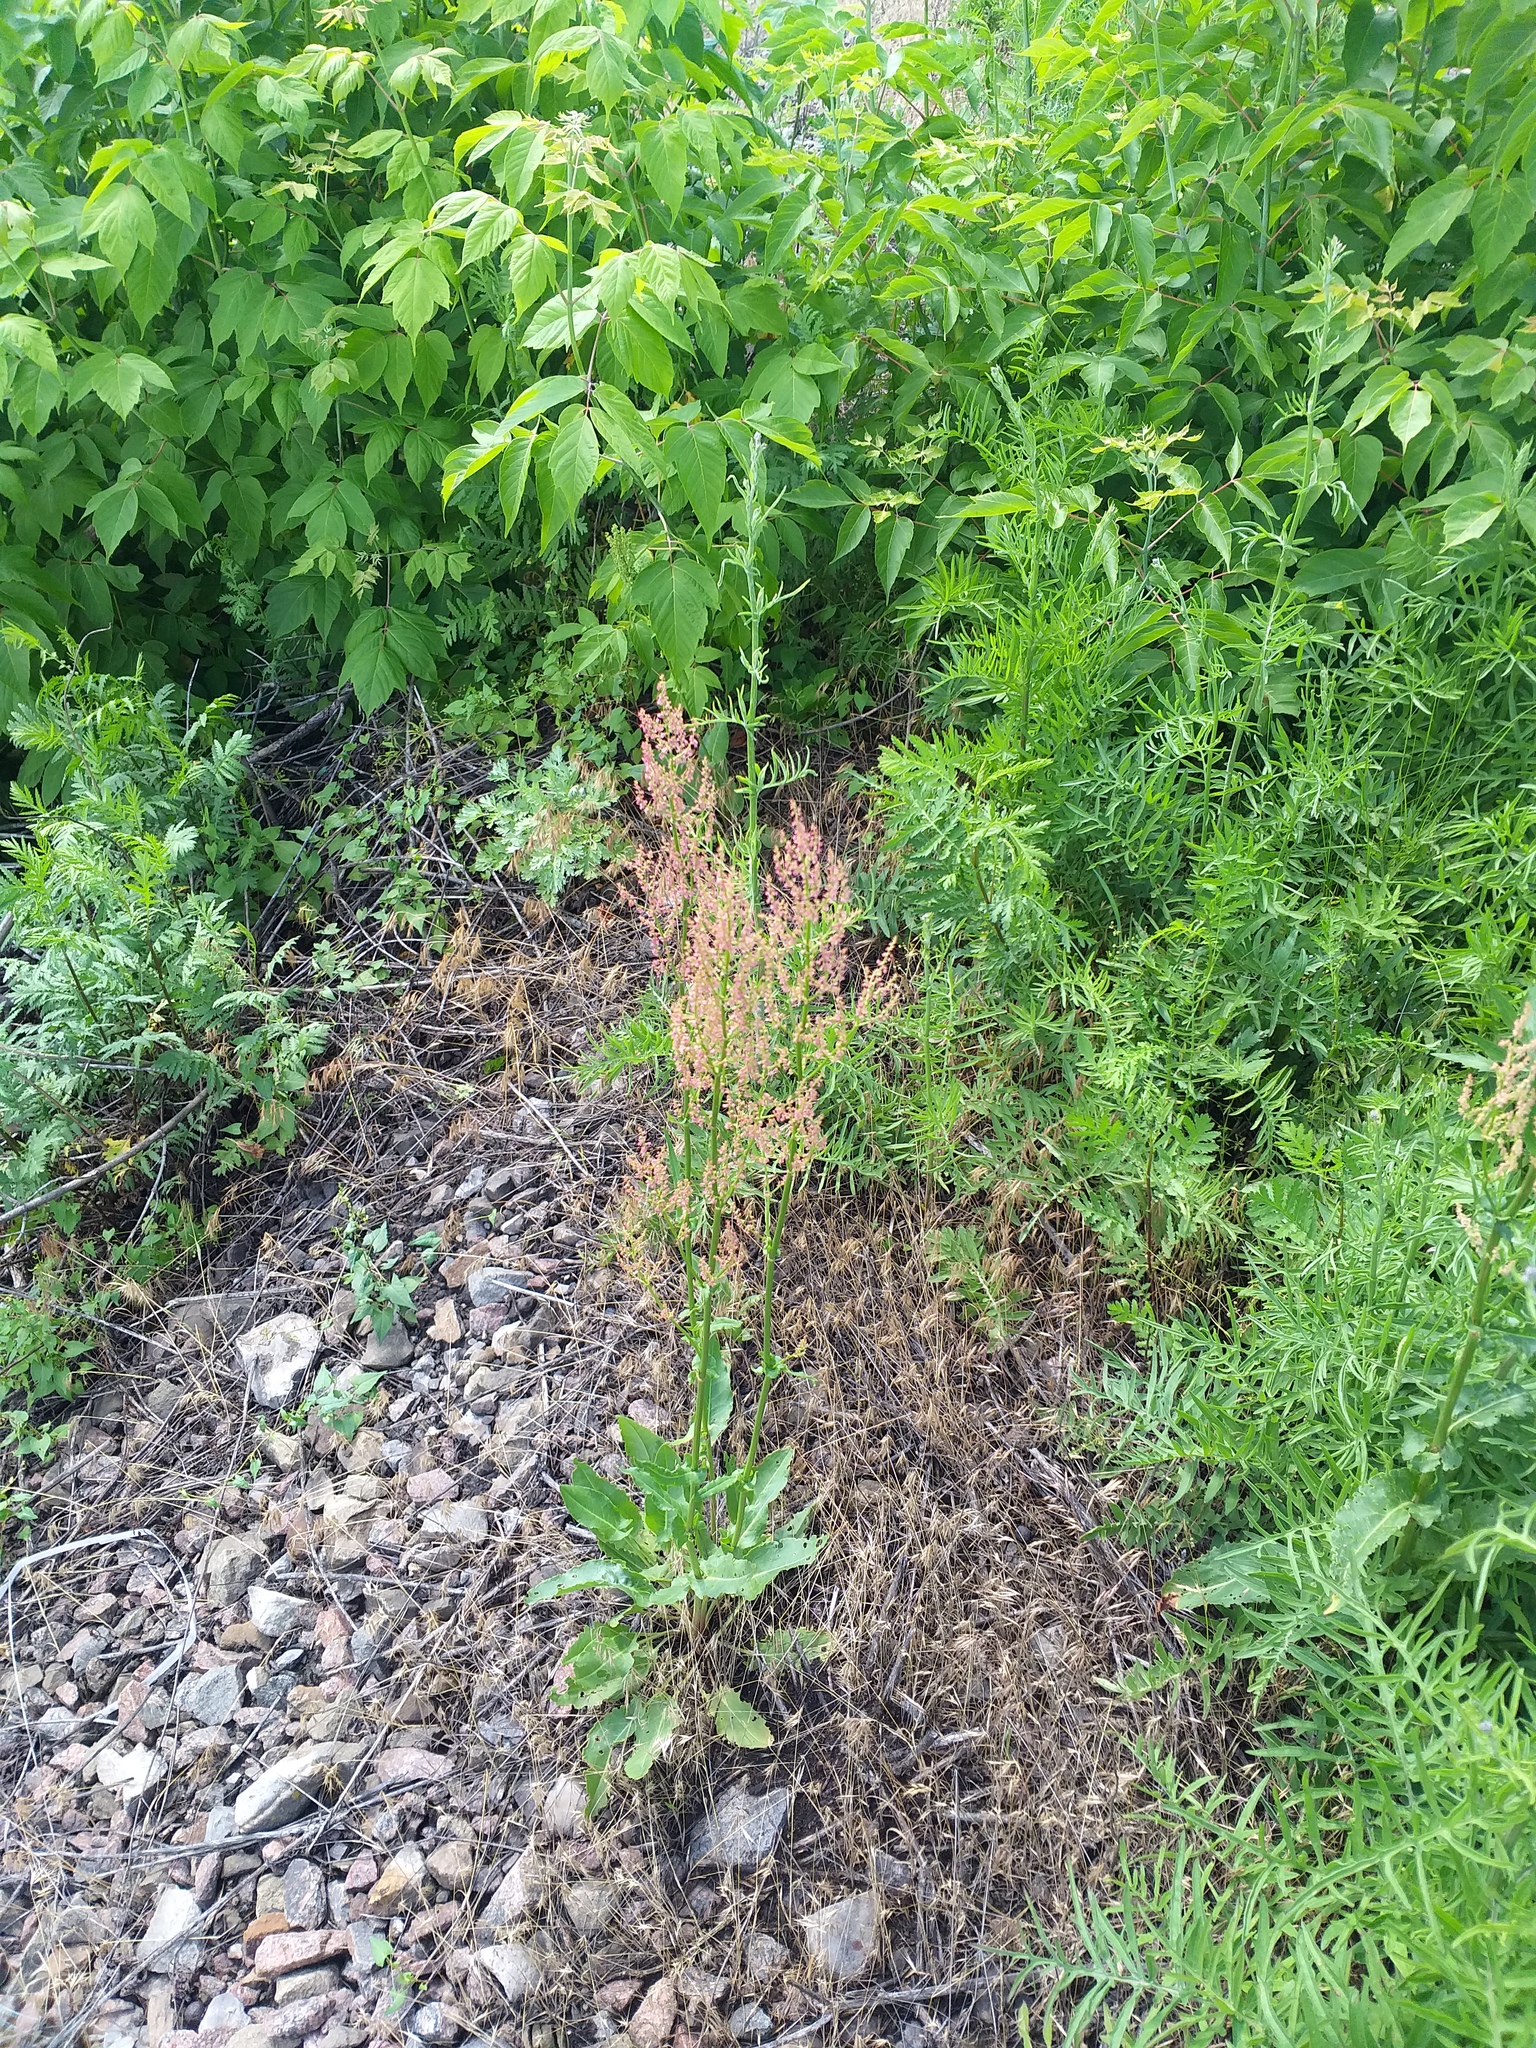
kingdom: Plantae
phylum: Tracheophyta
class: Magnoliopsida
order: Caryophyllales
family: Polygonaceae
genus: Rumex
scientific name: Rumex thyrsiflorus
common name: Garden sorrel
